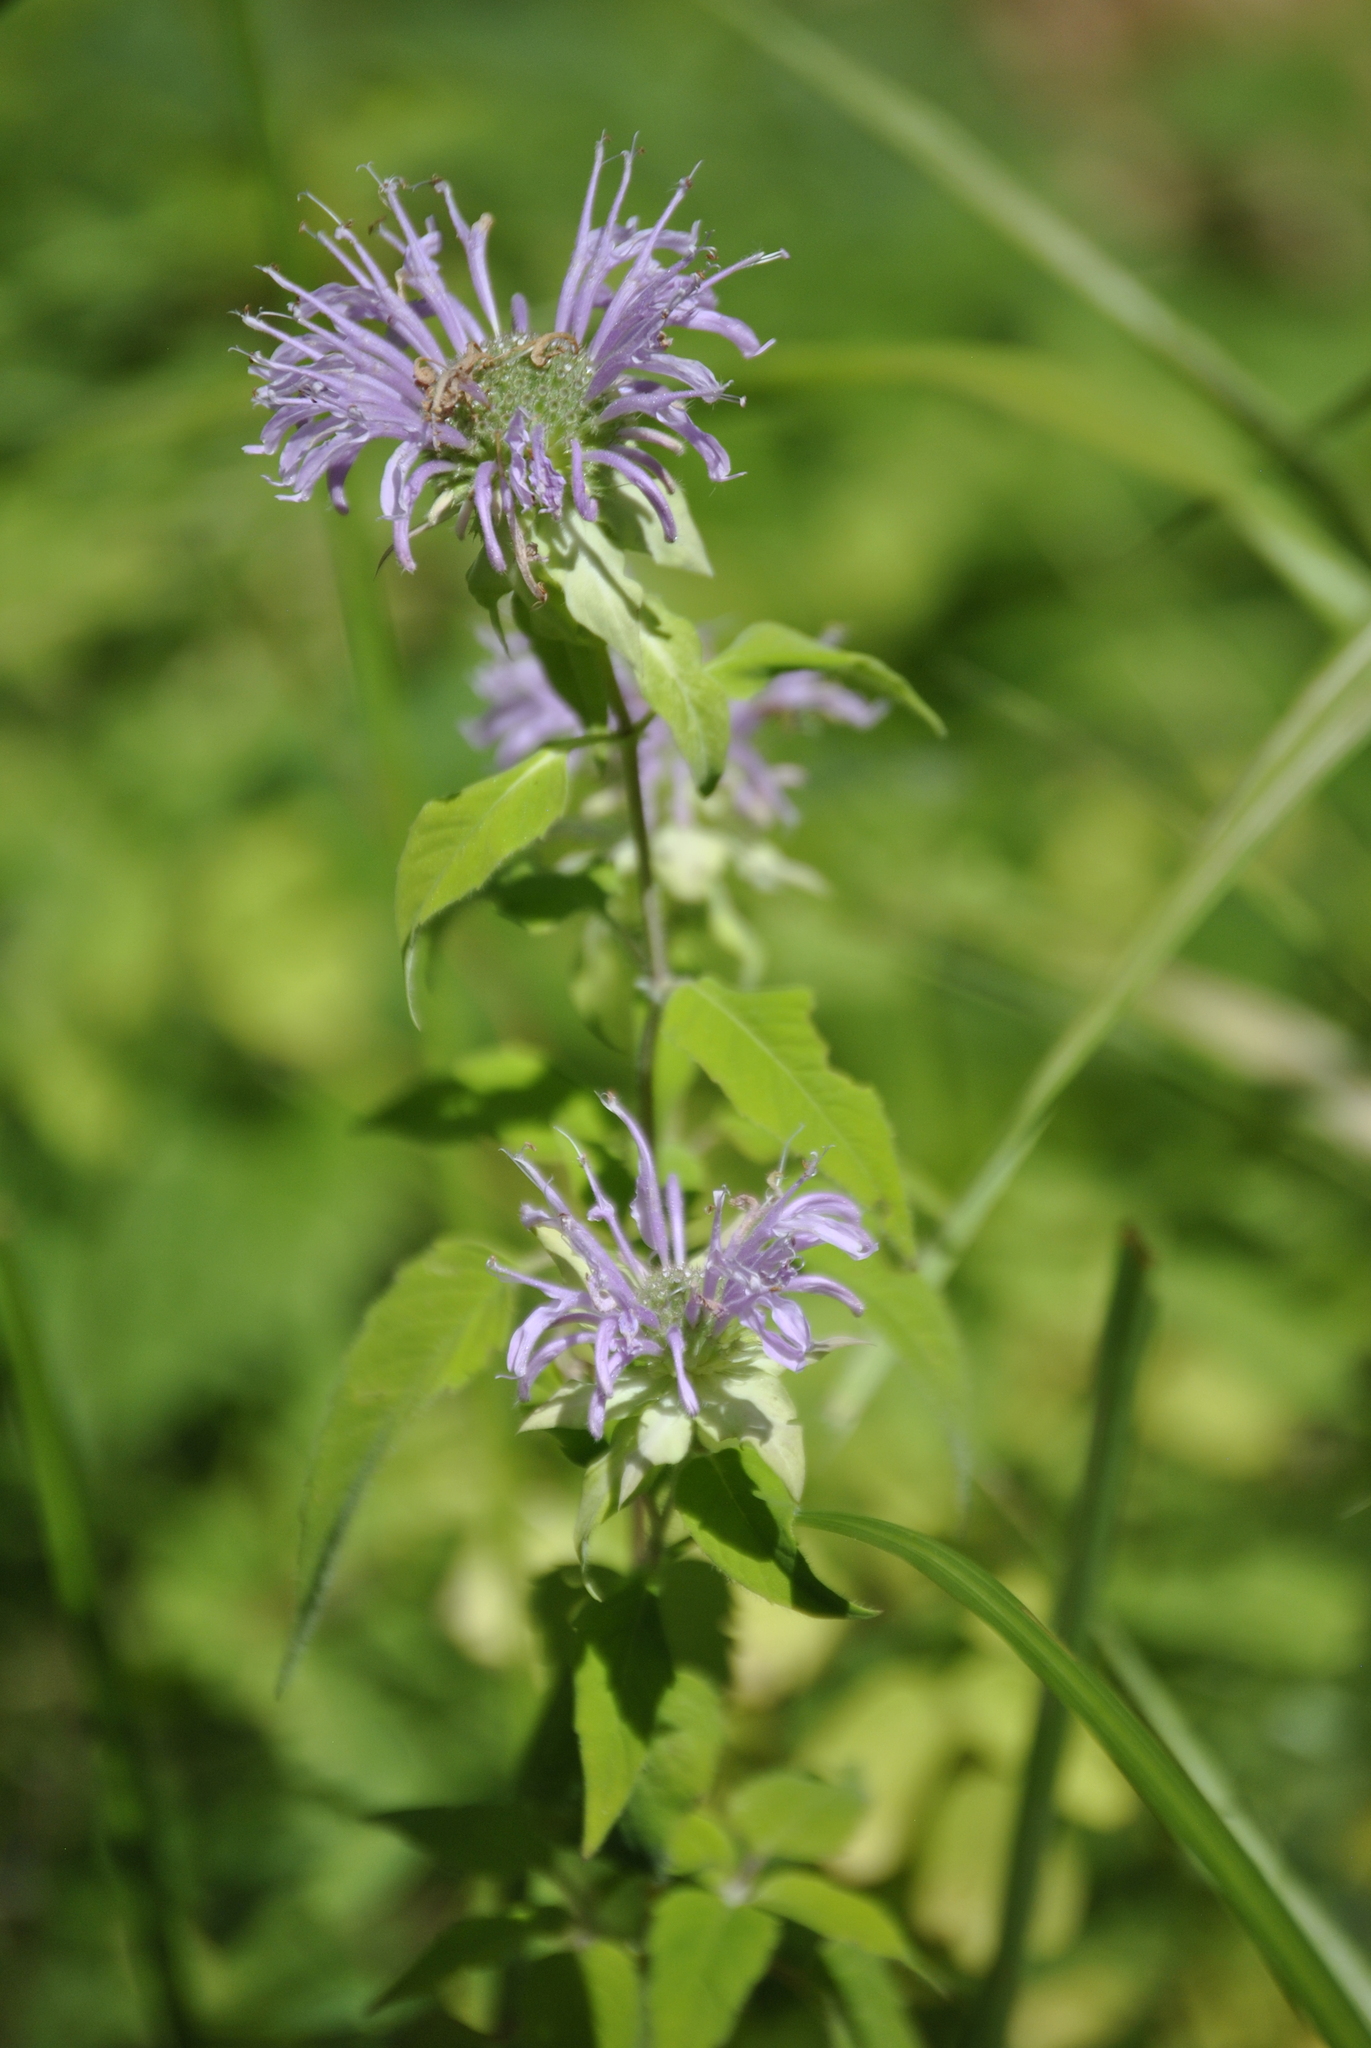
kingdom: Plantae
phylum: Tracheophyta
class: Magnoliopsida
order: Lamiales
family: Lamiaceae
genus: Monarda
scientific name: Monarda fistulosa
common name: Purple beebalm
